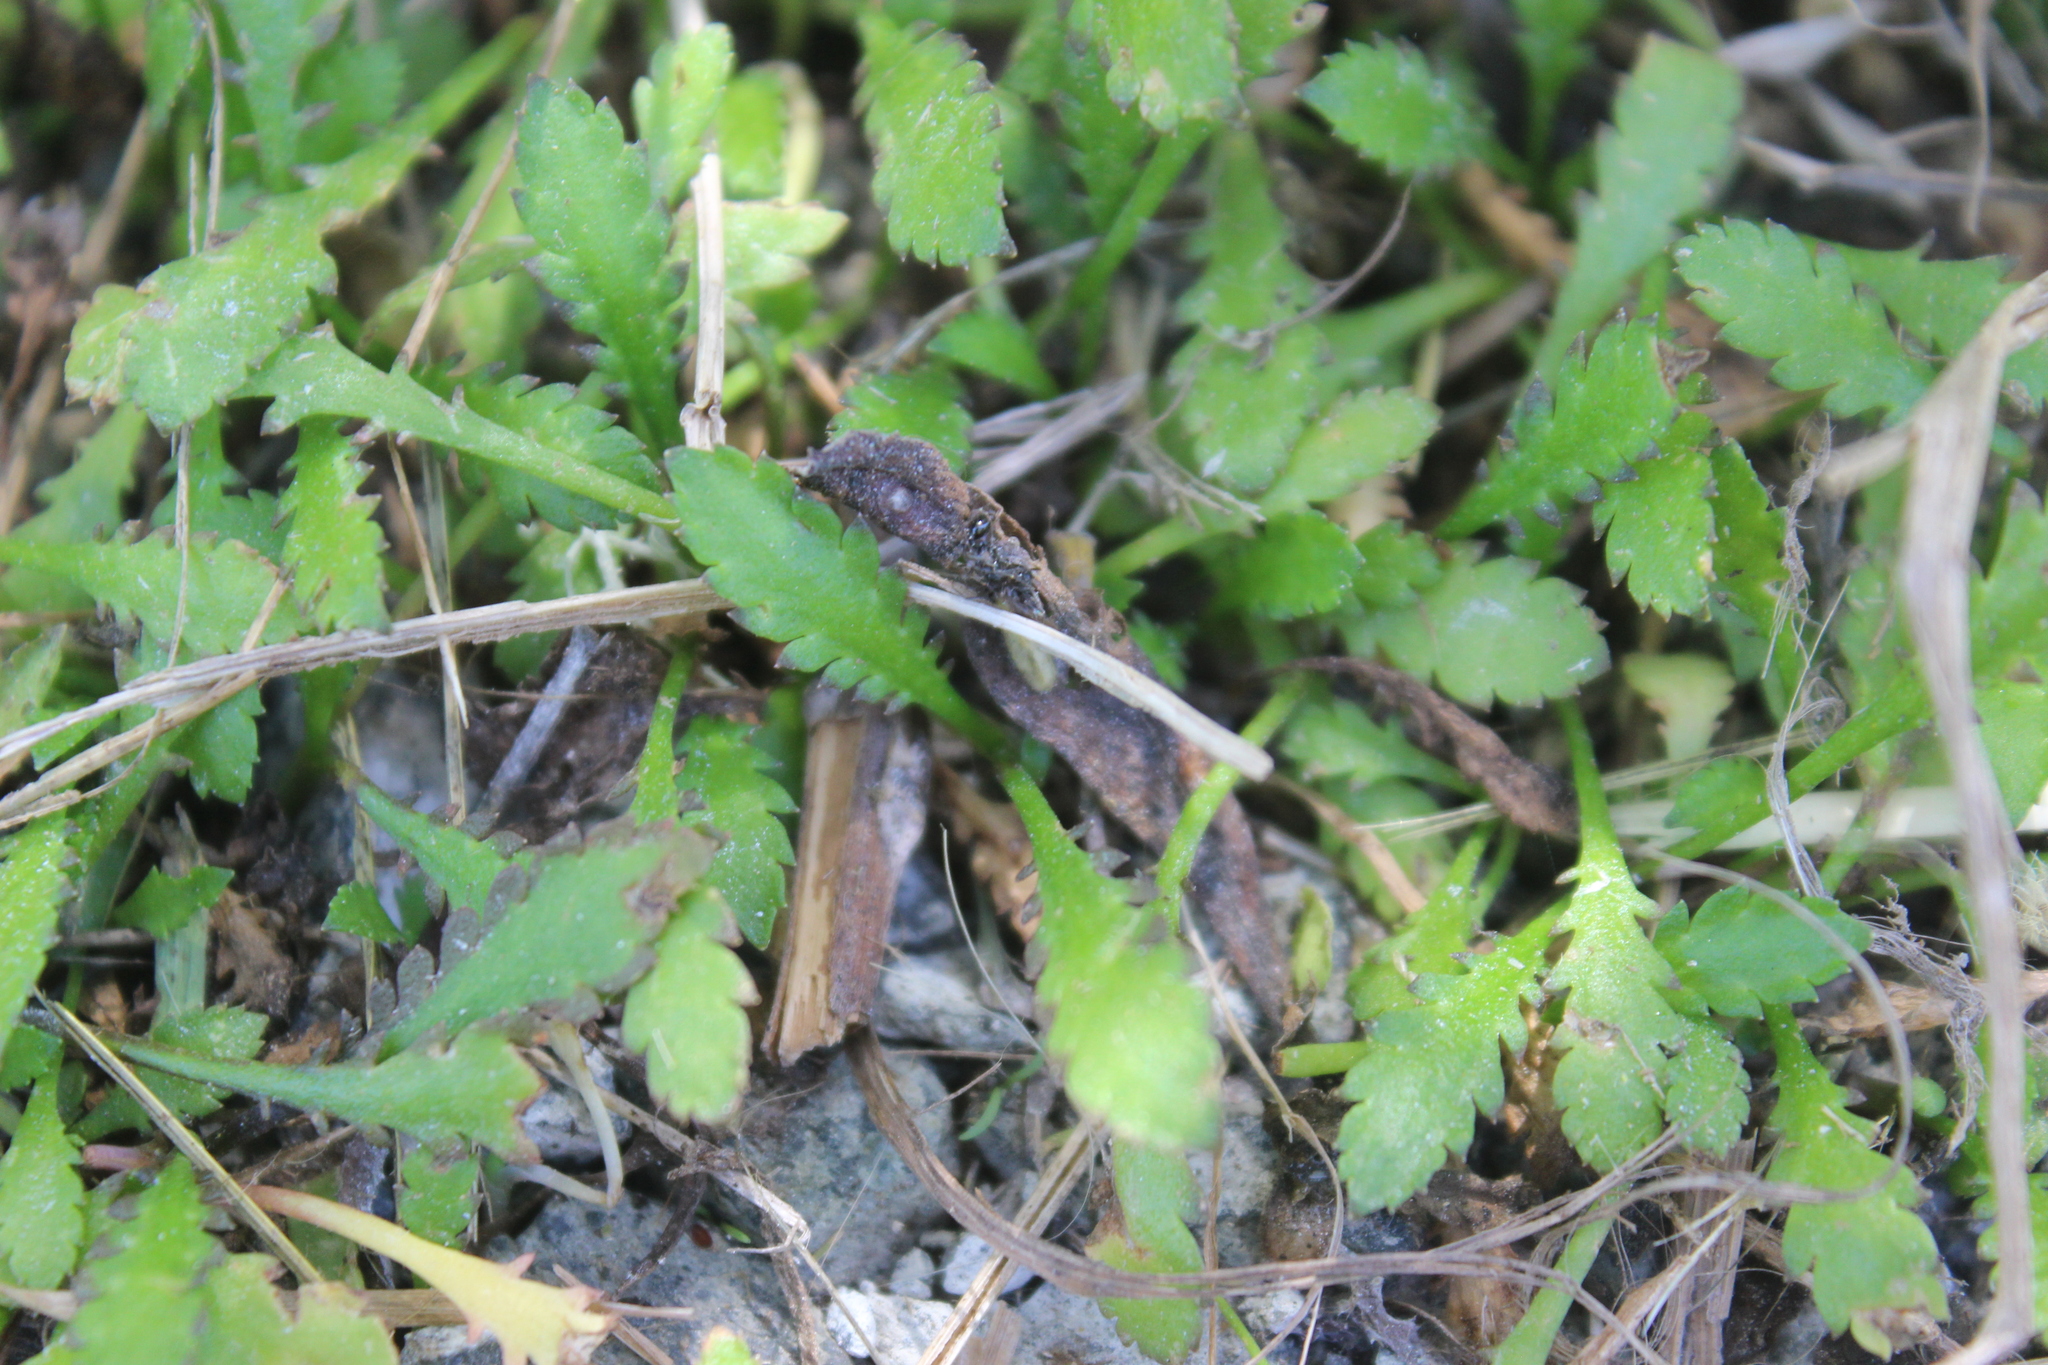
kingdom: Plantae
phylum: Tracheophyta
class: Magnoliopsida
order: Asterales
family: Asteraceae
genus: Leptinella
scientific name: Leptinella dioica
